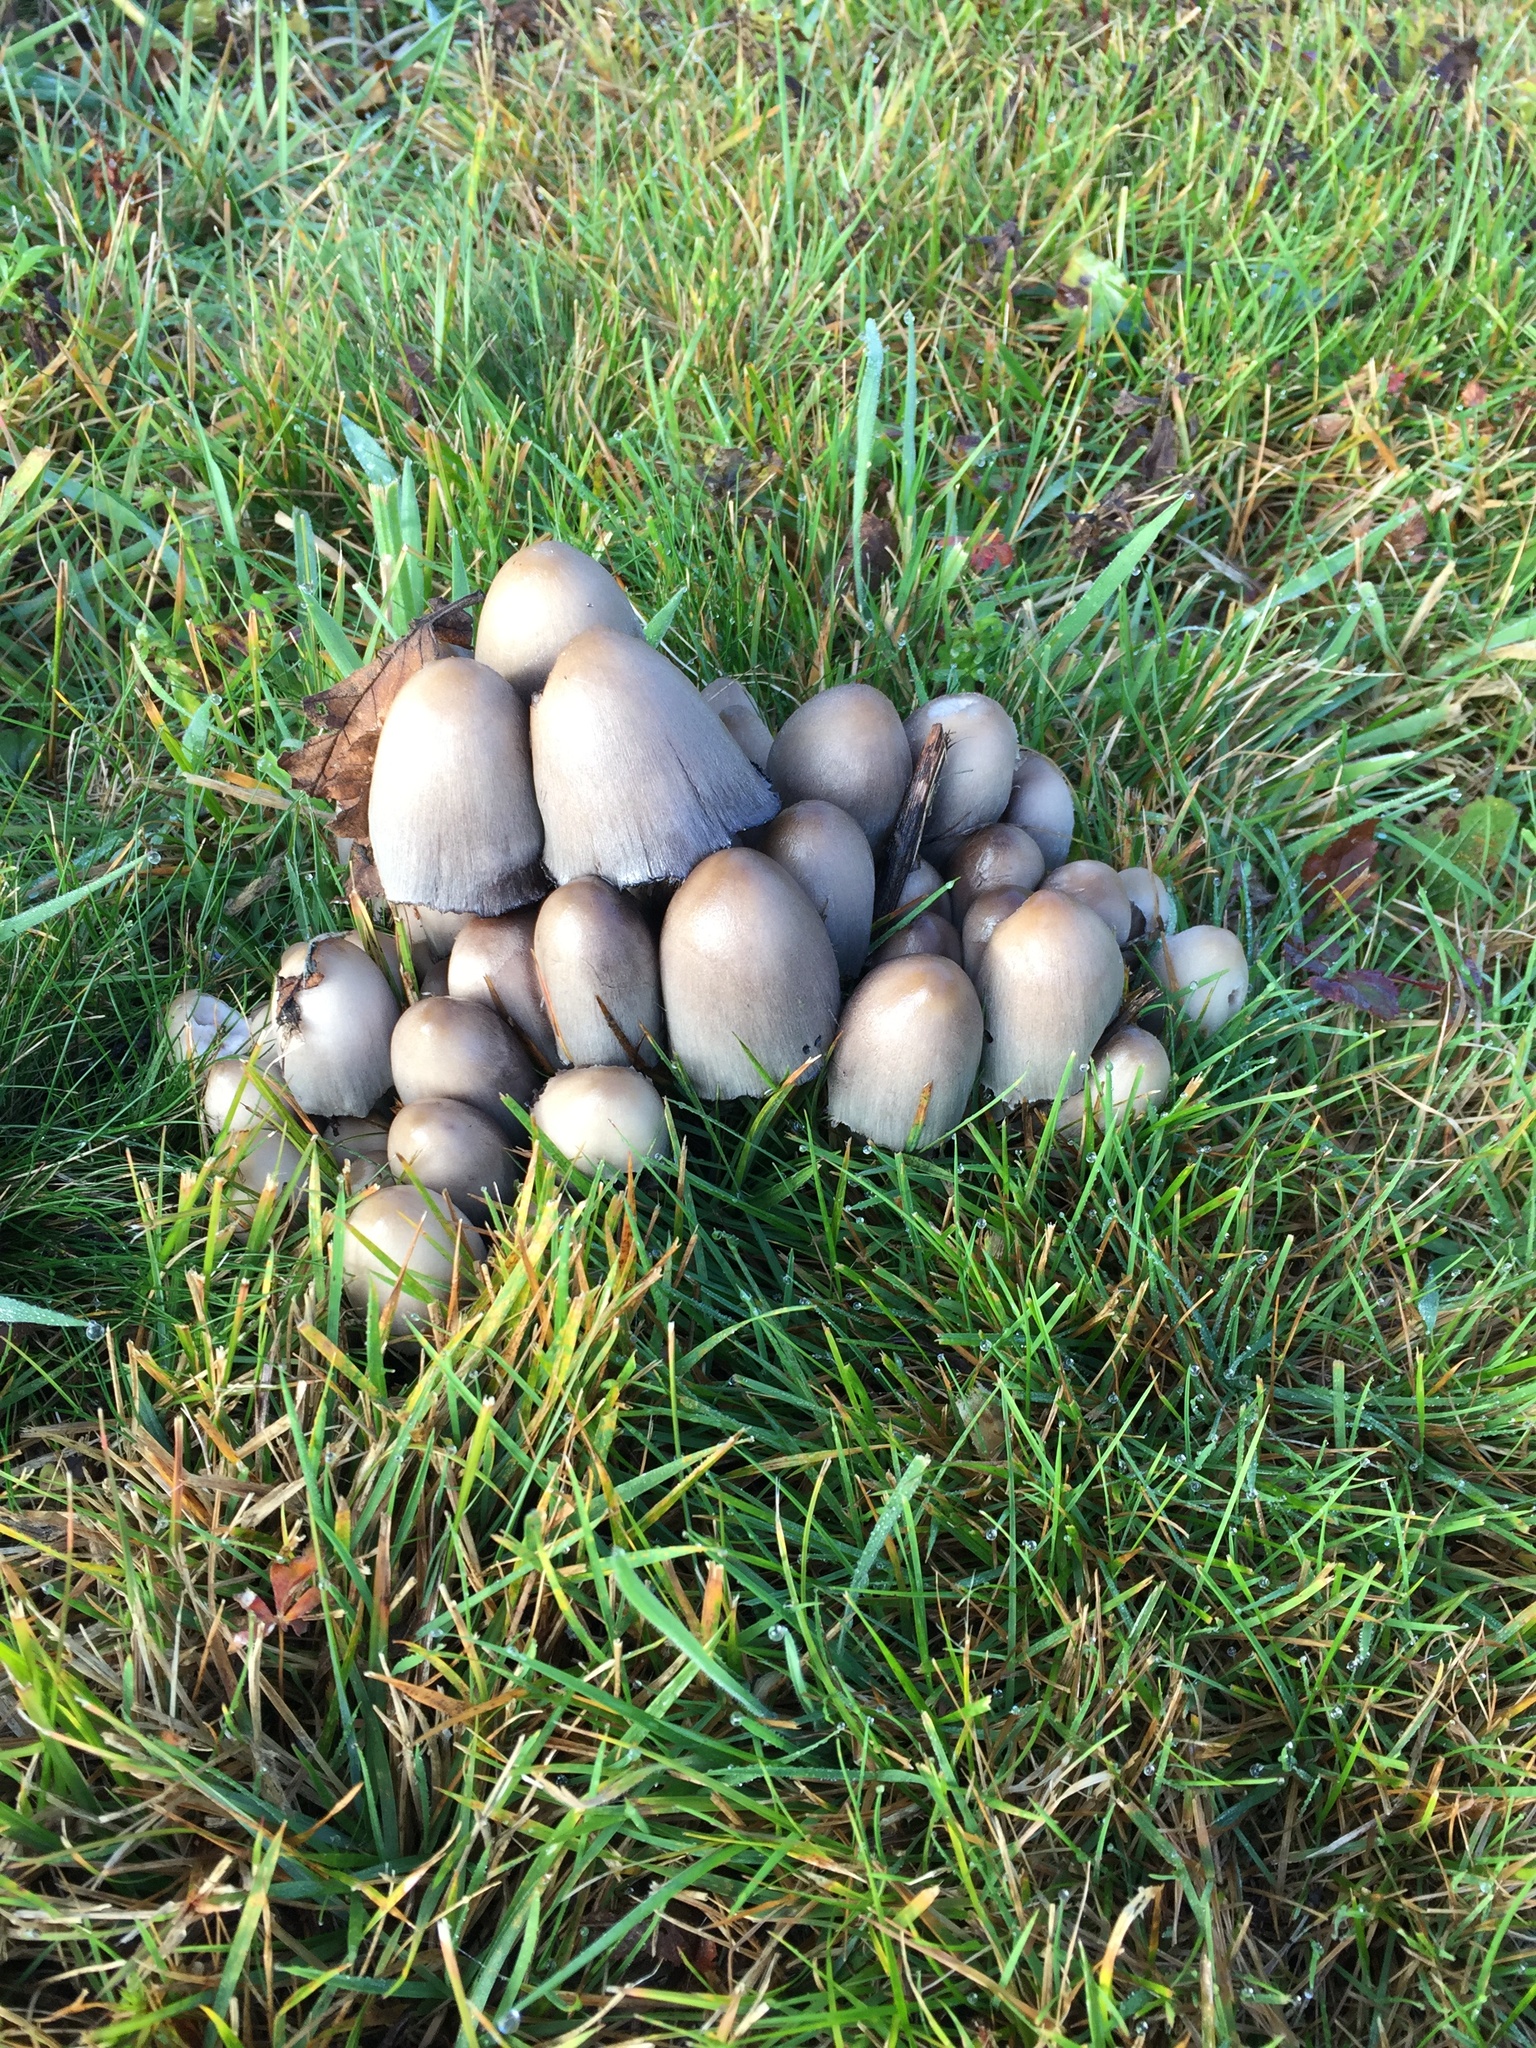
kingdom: Fungi
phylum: Basidiomycota
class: Agaricomycetes
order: Agaricales
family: Psathyrellaceae
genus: Coprinopsis
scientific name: Coprinopsis atramentaria
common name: Common ink-cap
